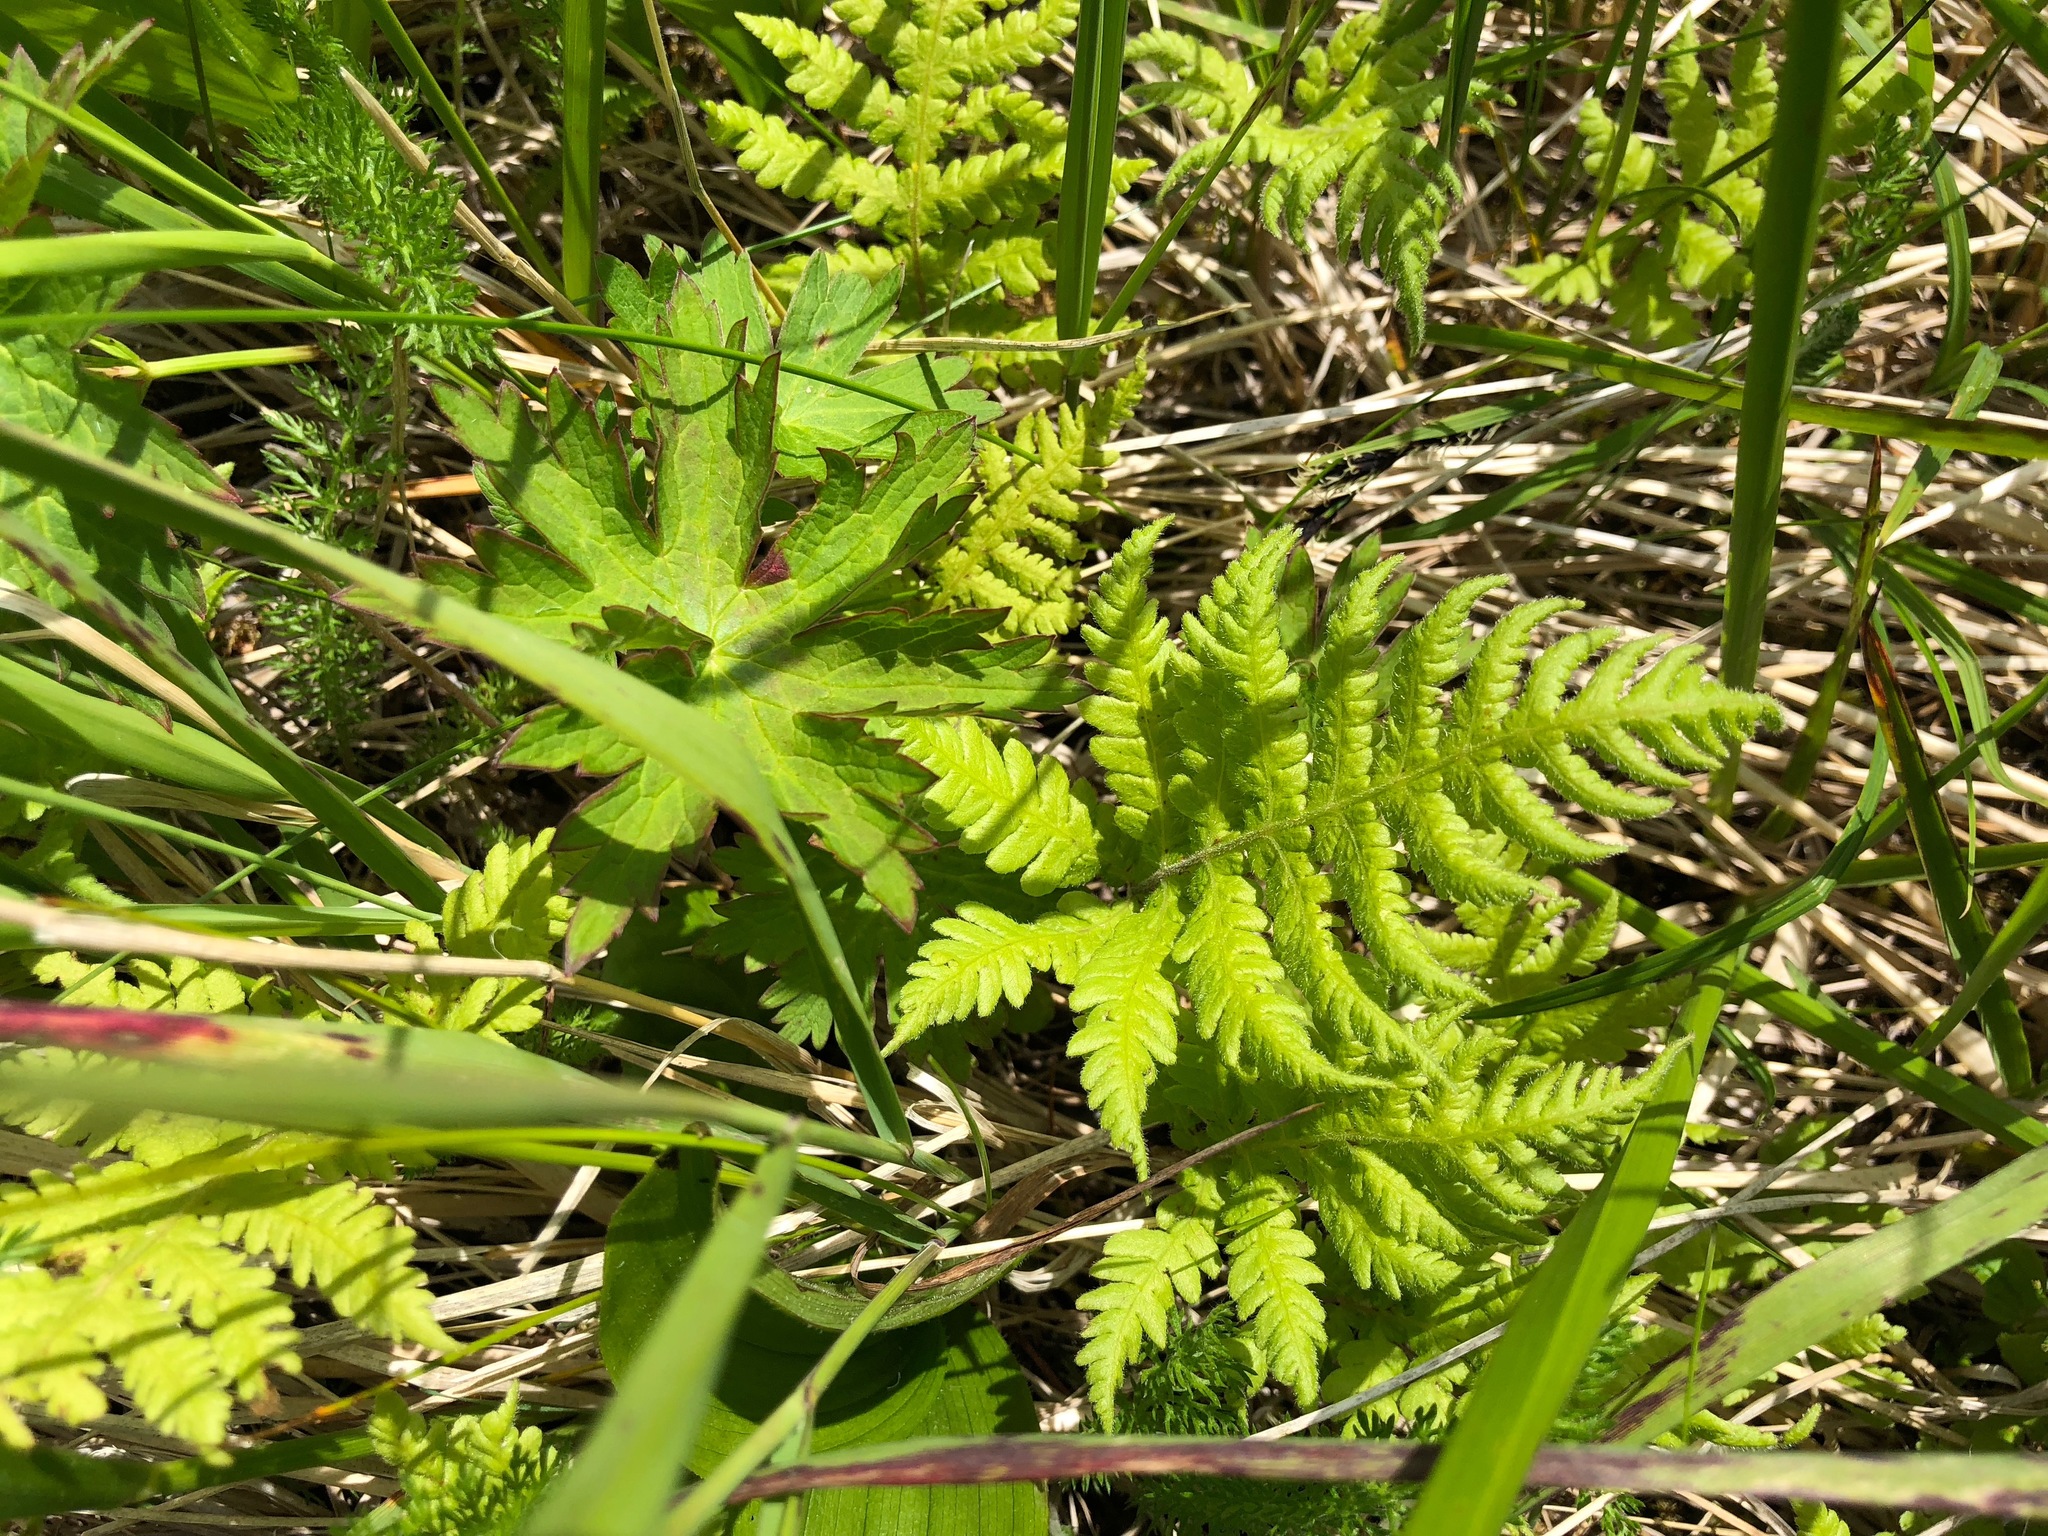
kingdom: Plantae
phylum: Tracheophyta
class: Polypodiopsida
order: Polypodiales
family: Thelypteridaceae
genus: Phegopteris
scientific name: Phegopteris connectilis
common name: Beech fern
